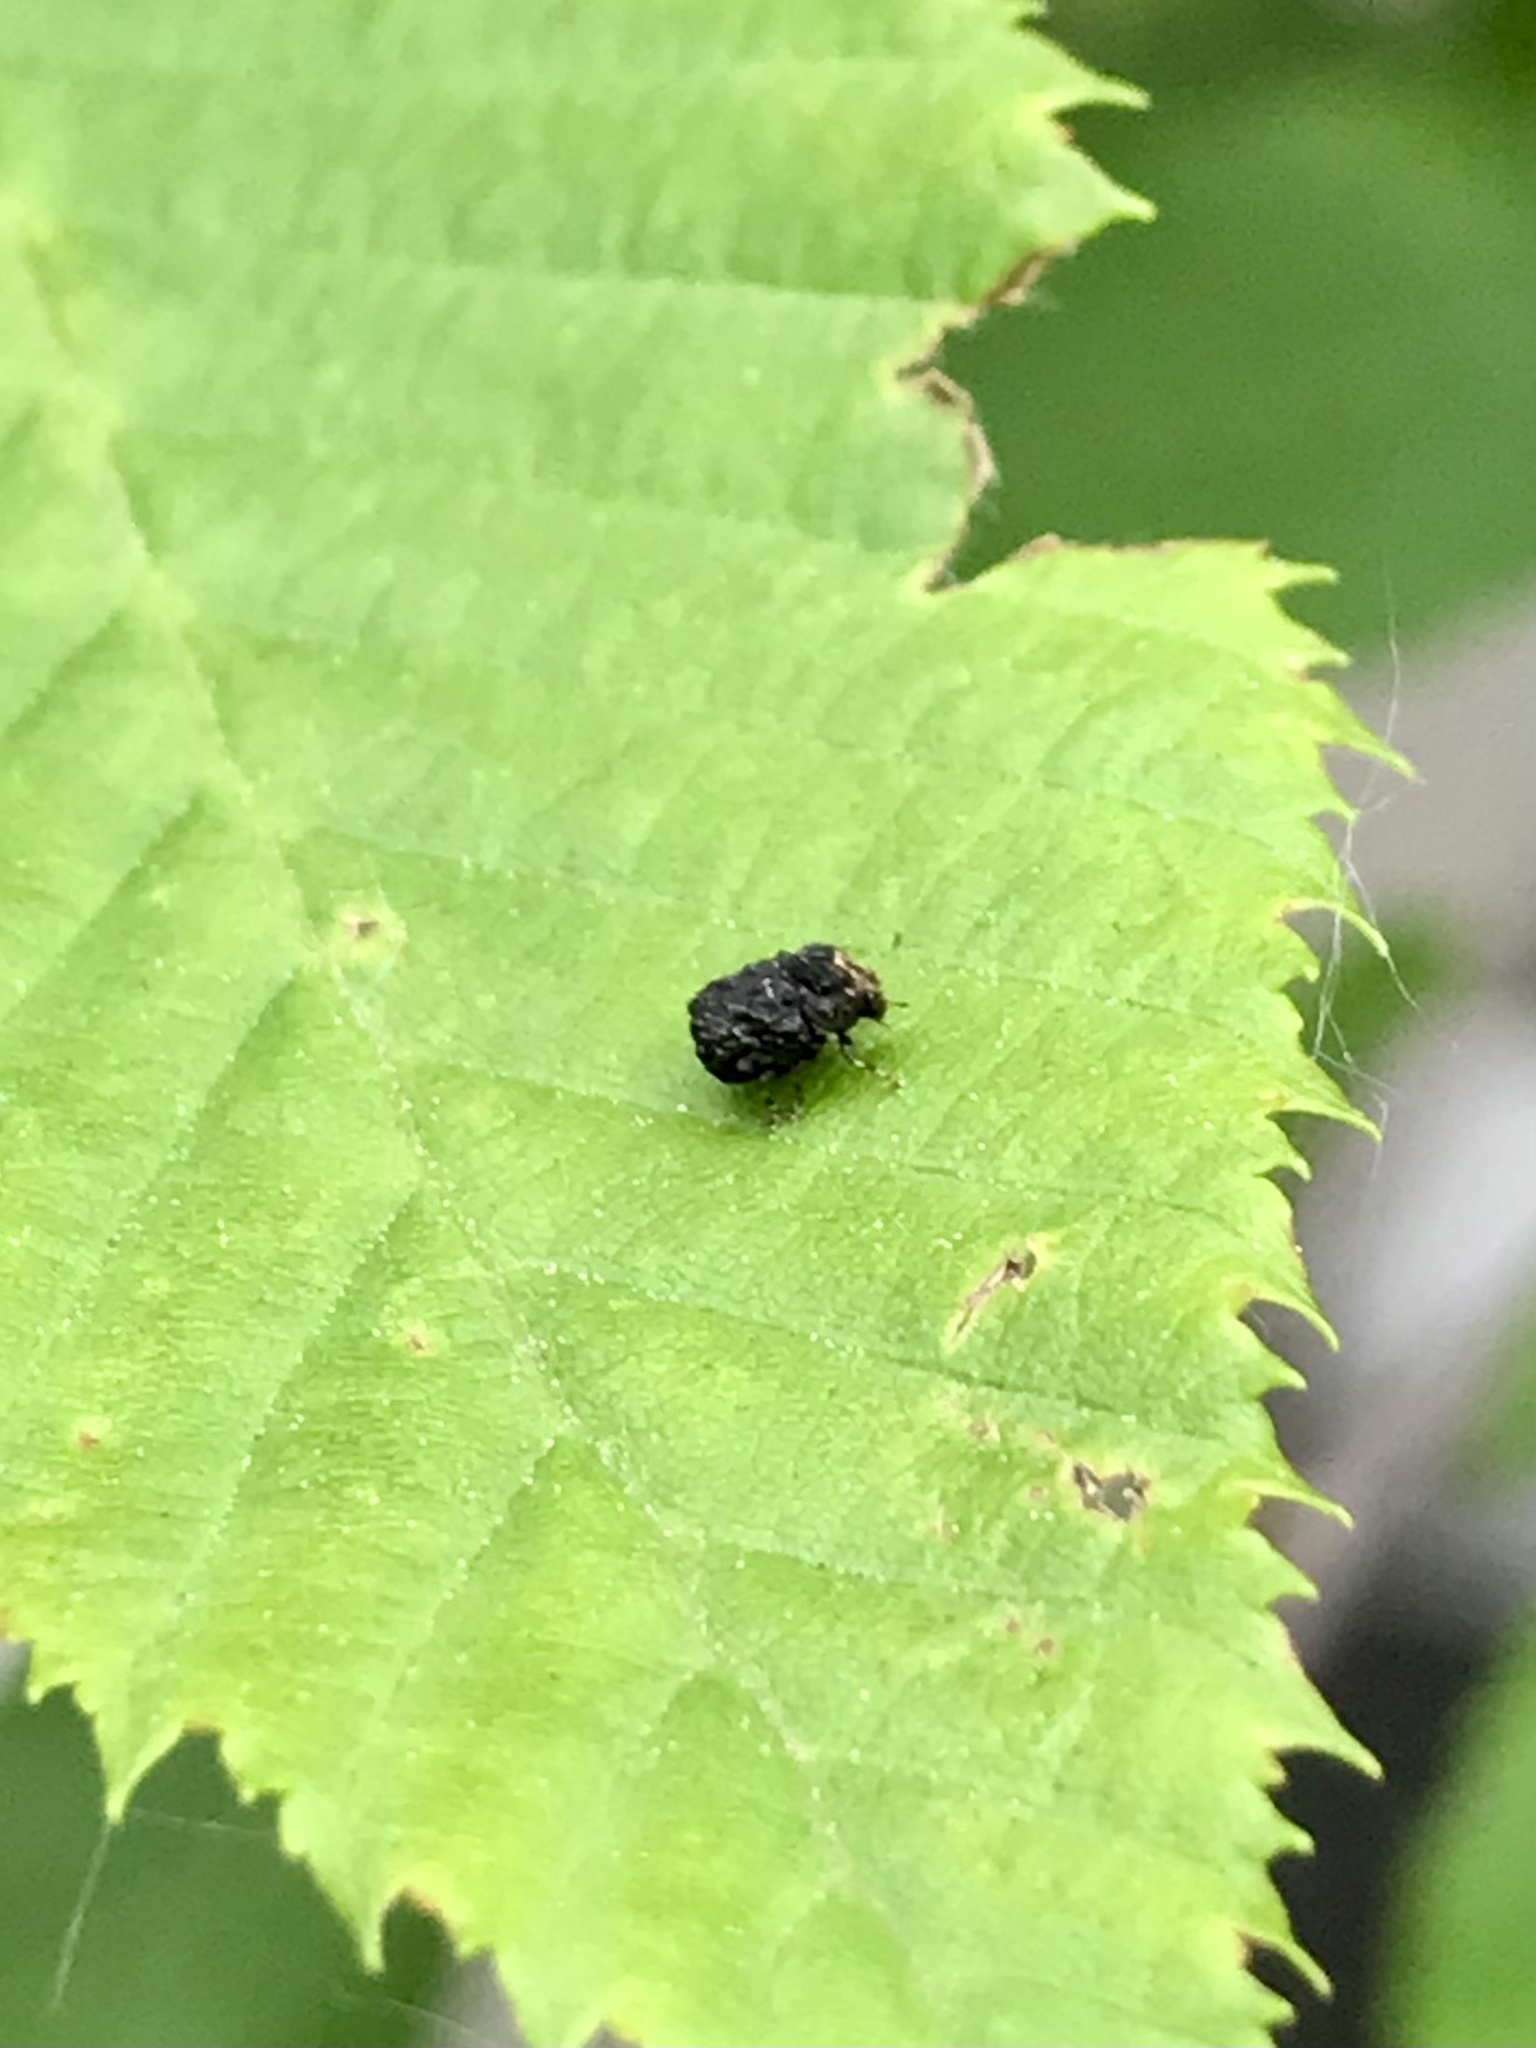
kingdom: Animalia
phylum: Arthropoda
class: Insecta
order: Coleoptera
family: Chrysomelidae
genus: Exema
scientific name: Exema dispar
